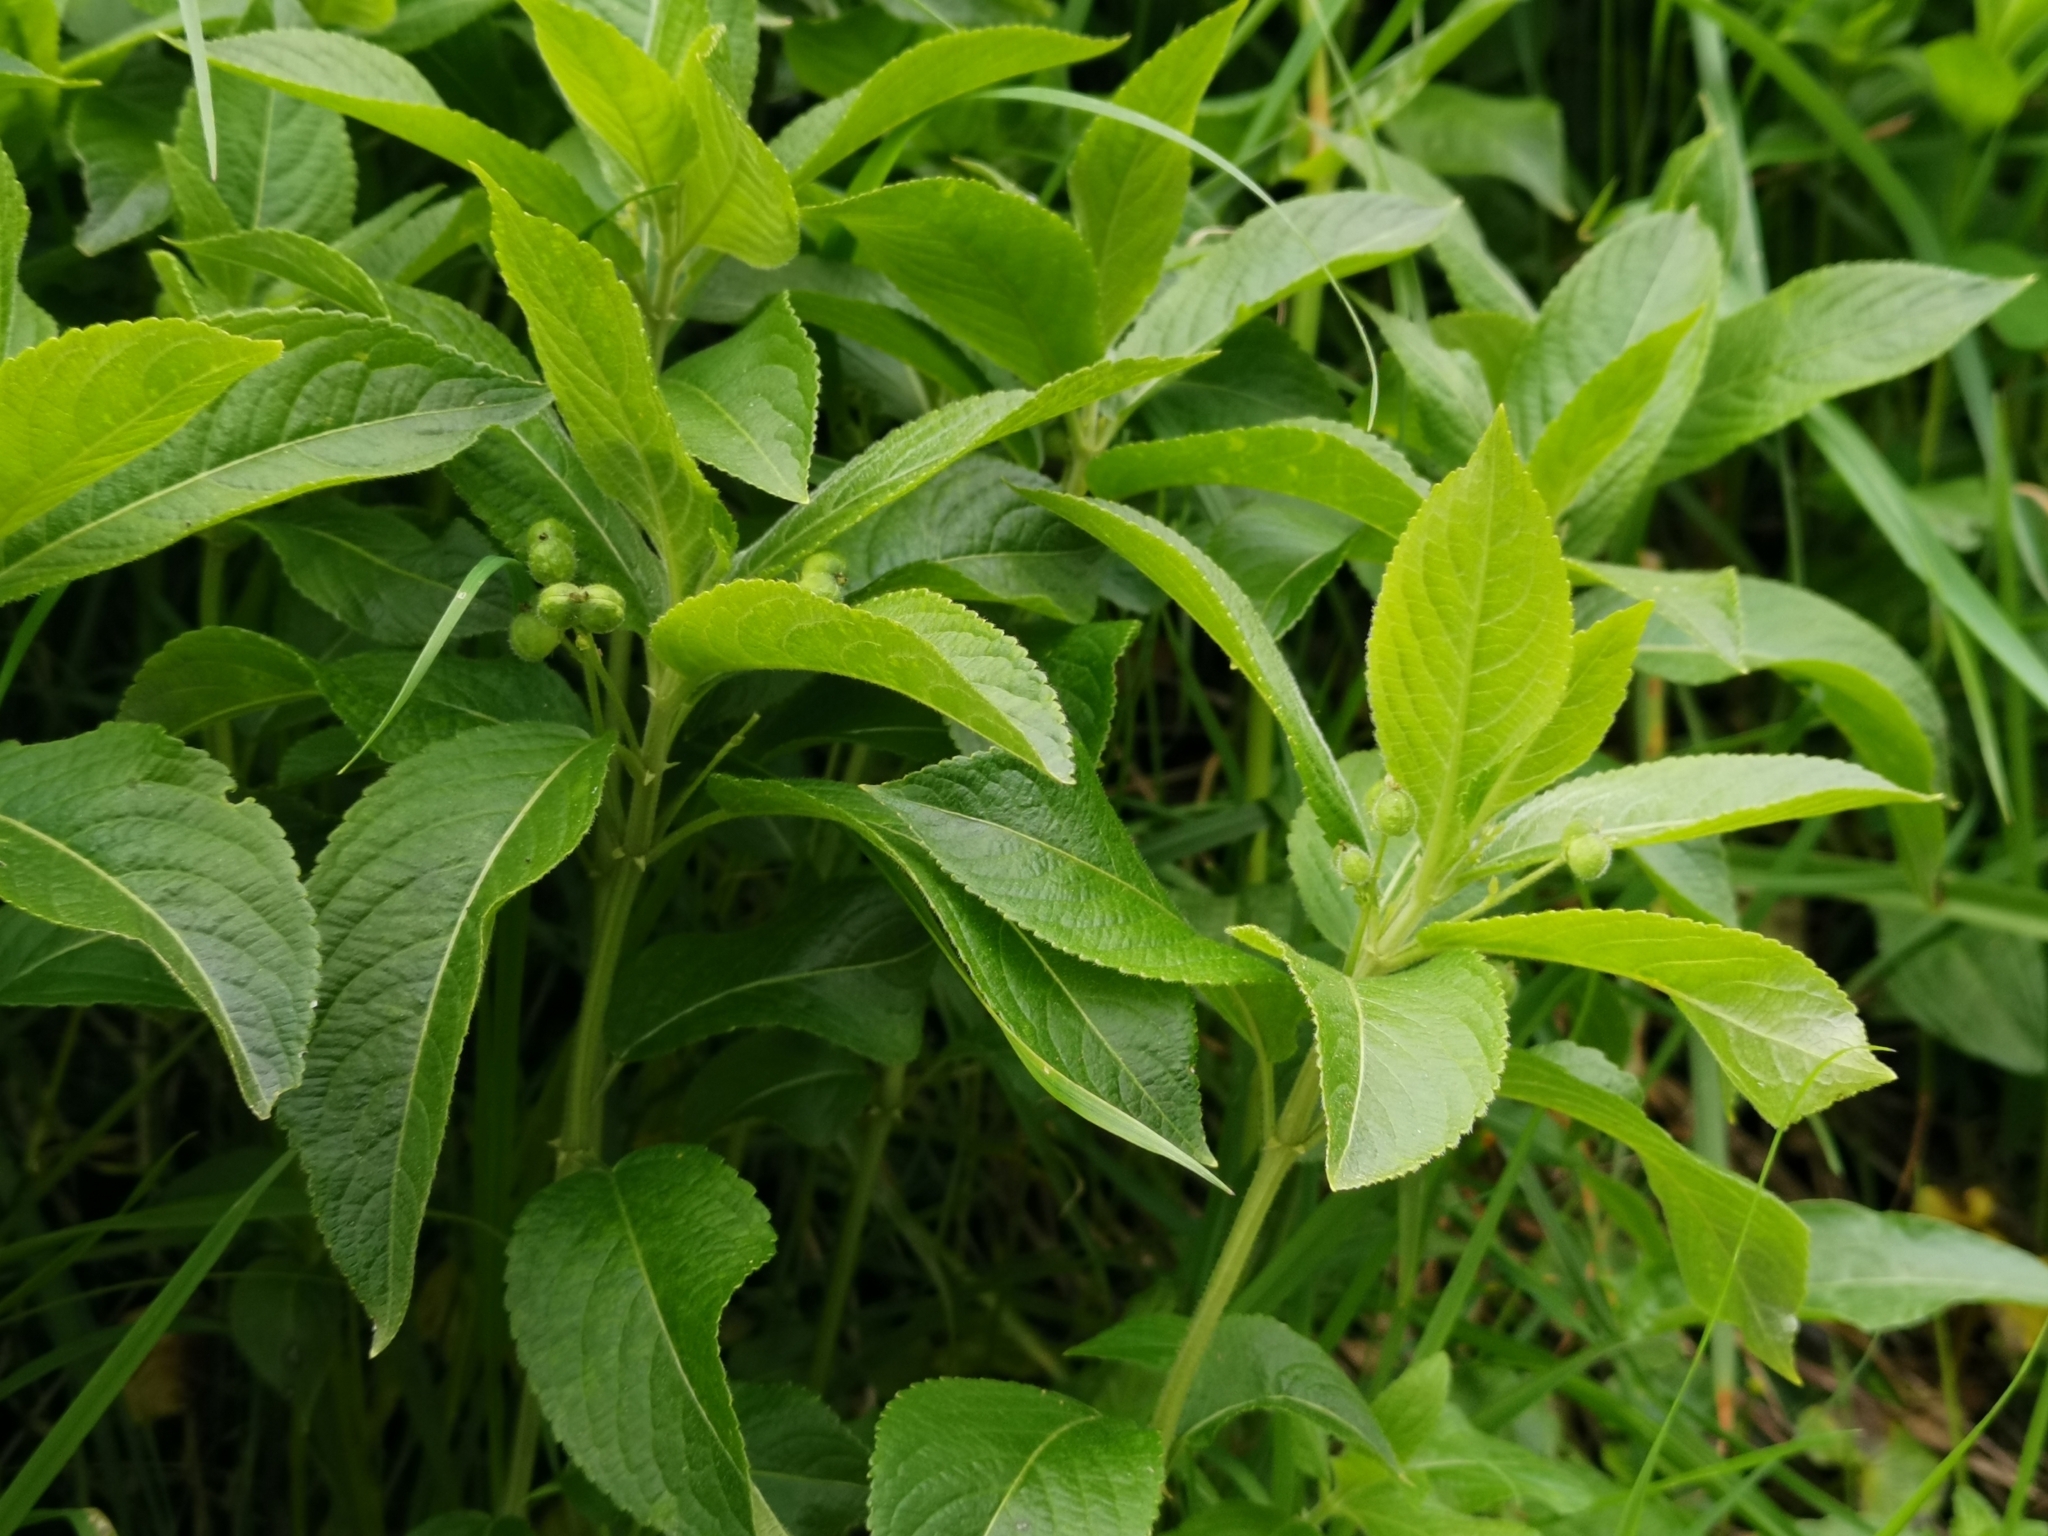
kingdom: Plantae
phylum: Tracheophyta
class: Magnoliopsida
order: Malpighiales
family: Euphorbiaceae
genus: Mercurialis
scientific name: Mercurialis perennis
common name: Dog mercury
